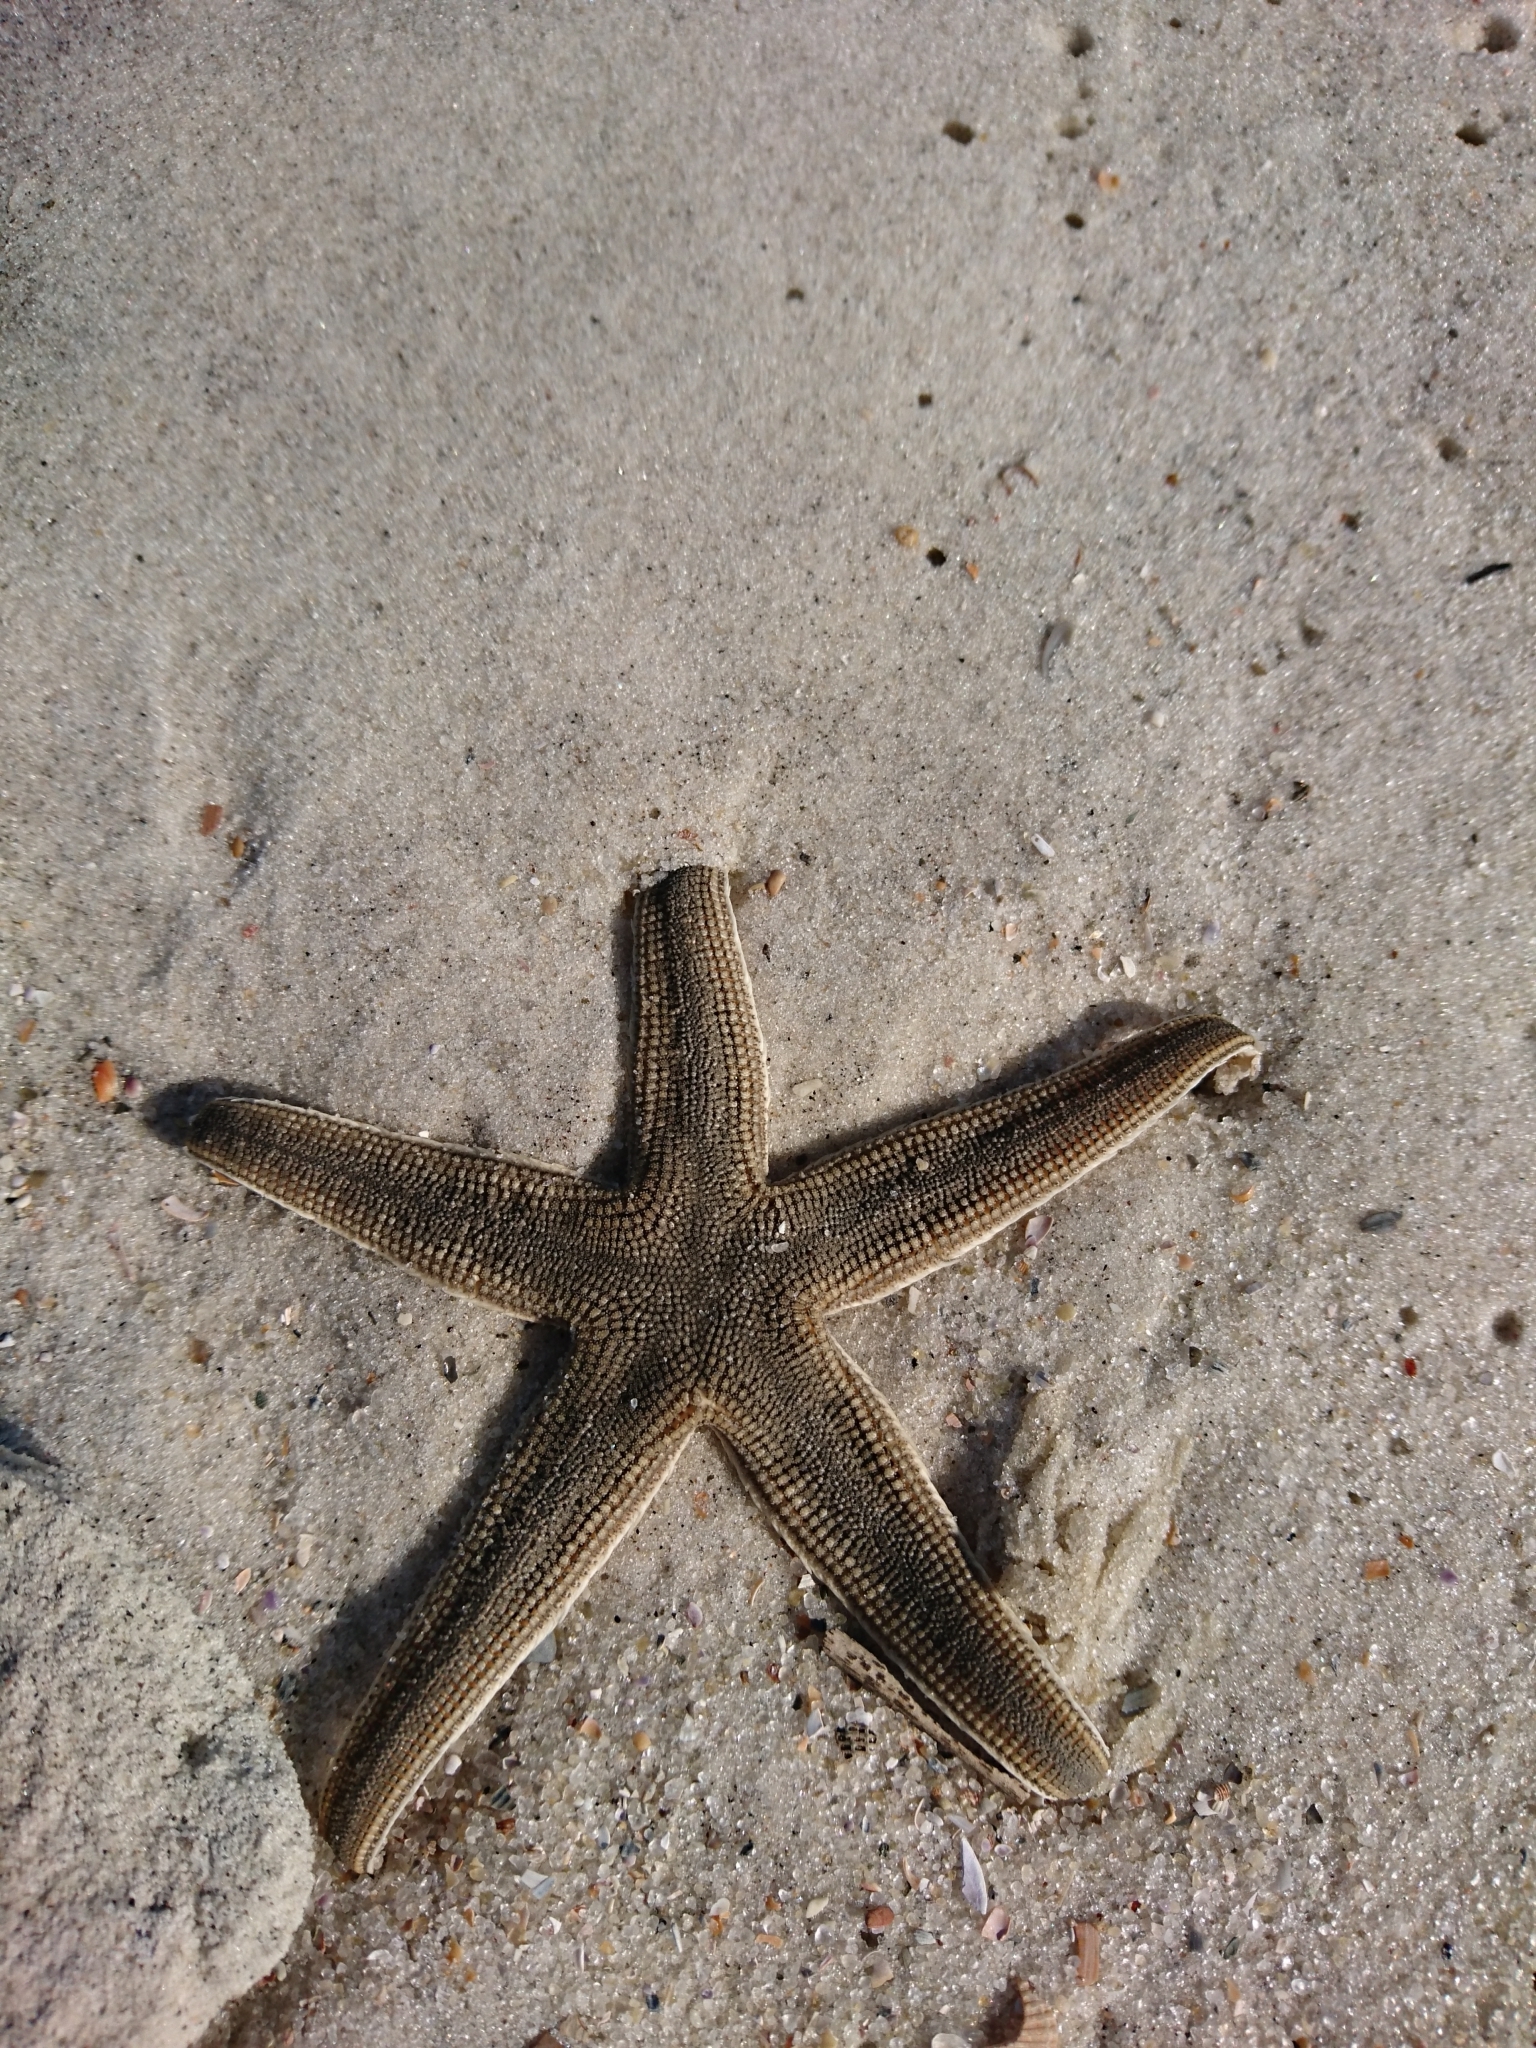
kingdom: Animalia
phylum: Echinodermata
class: Asteroidea
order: Paxillosida
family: Luidiidae
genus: Luidia
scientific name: Luidia clathrata
